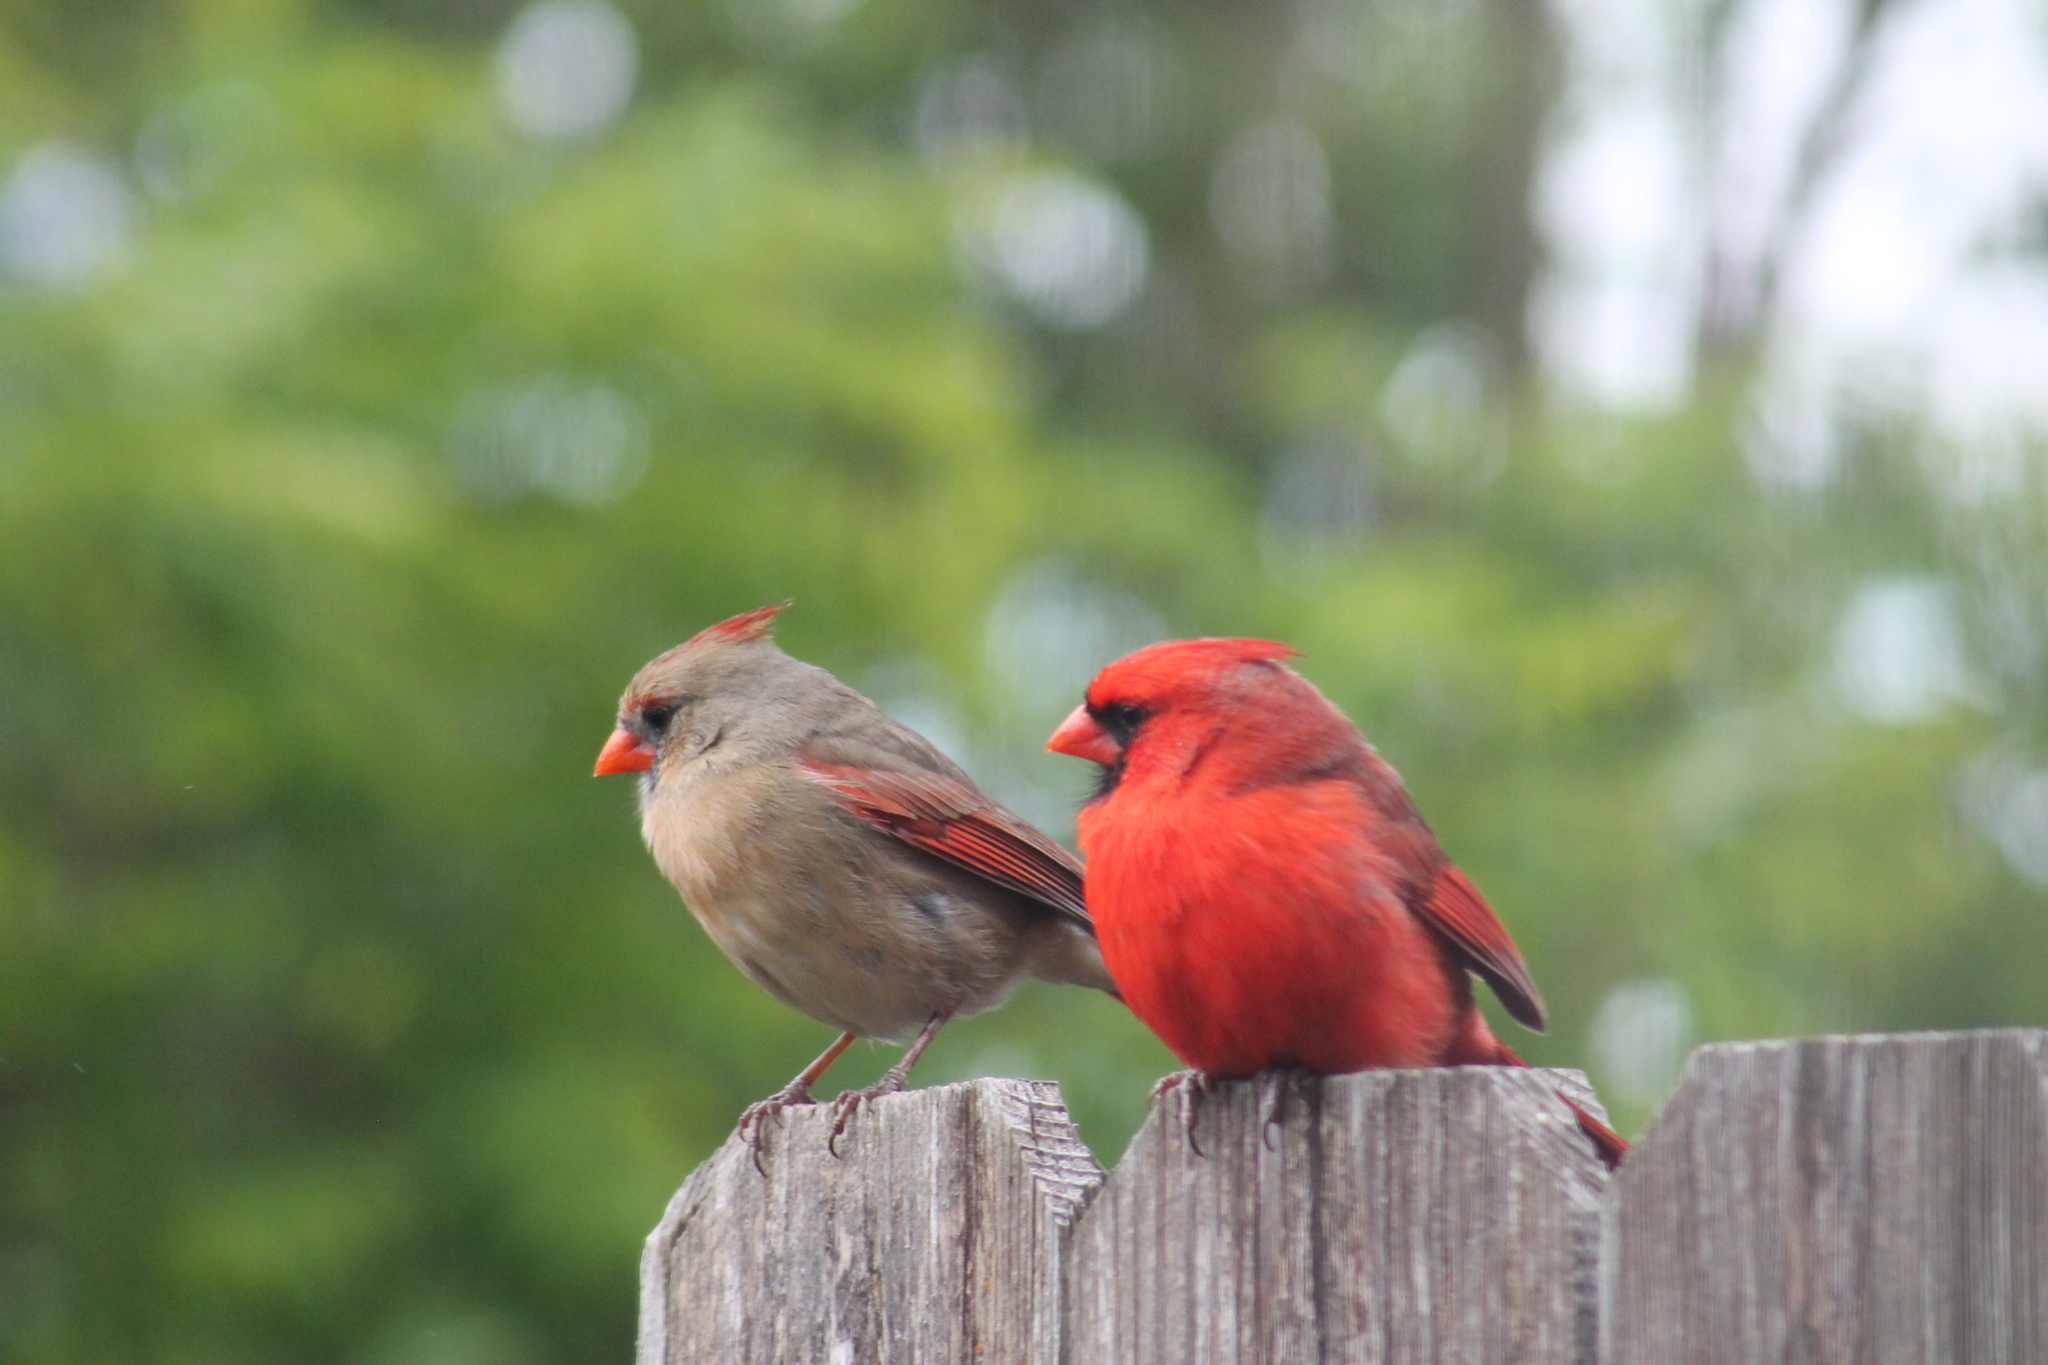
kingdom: Animalia
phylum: Chordata
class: Aves
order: Passeriformes
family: Cardinalidae
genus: Cardinalis
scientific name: Cardinalis cardinalis
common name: Northern cardinal
